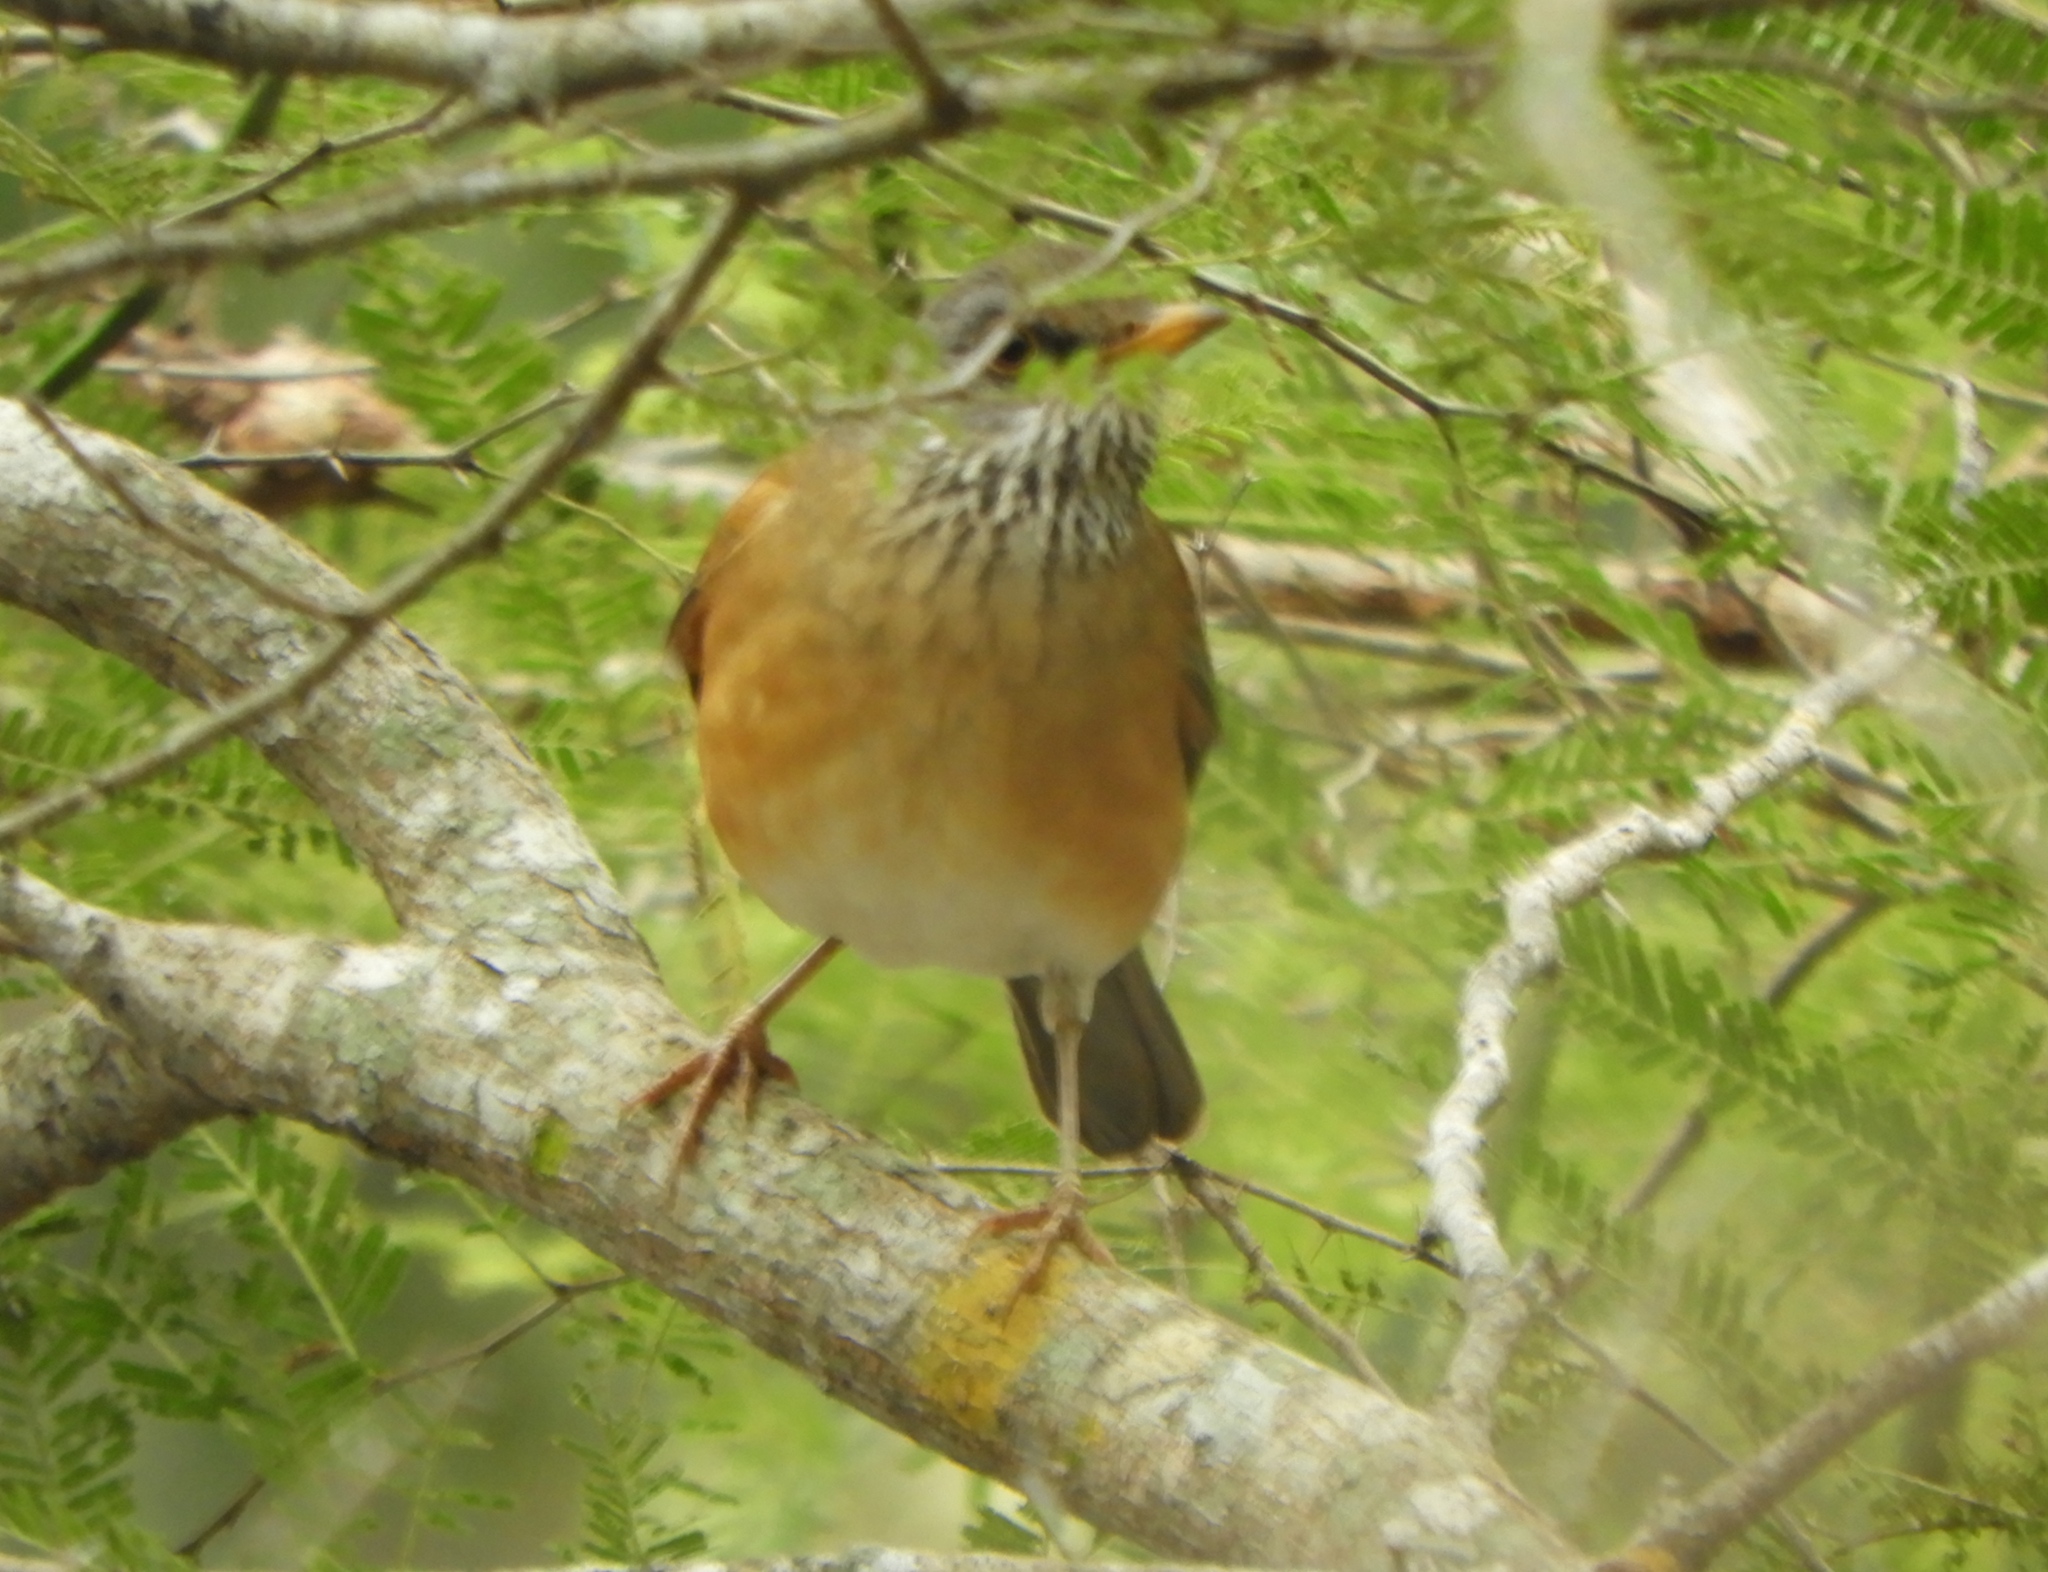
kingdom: Animalia
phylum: Chordata
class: Aves
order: Passeriformes
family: Turdidae
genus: Turdus
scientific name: Turdus rufopalliatus
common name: Rufous-backed robin
